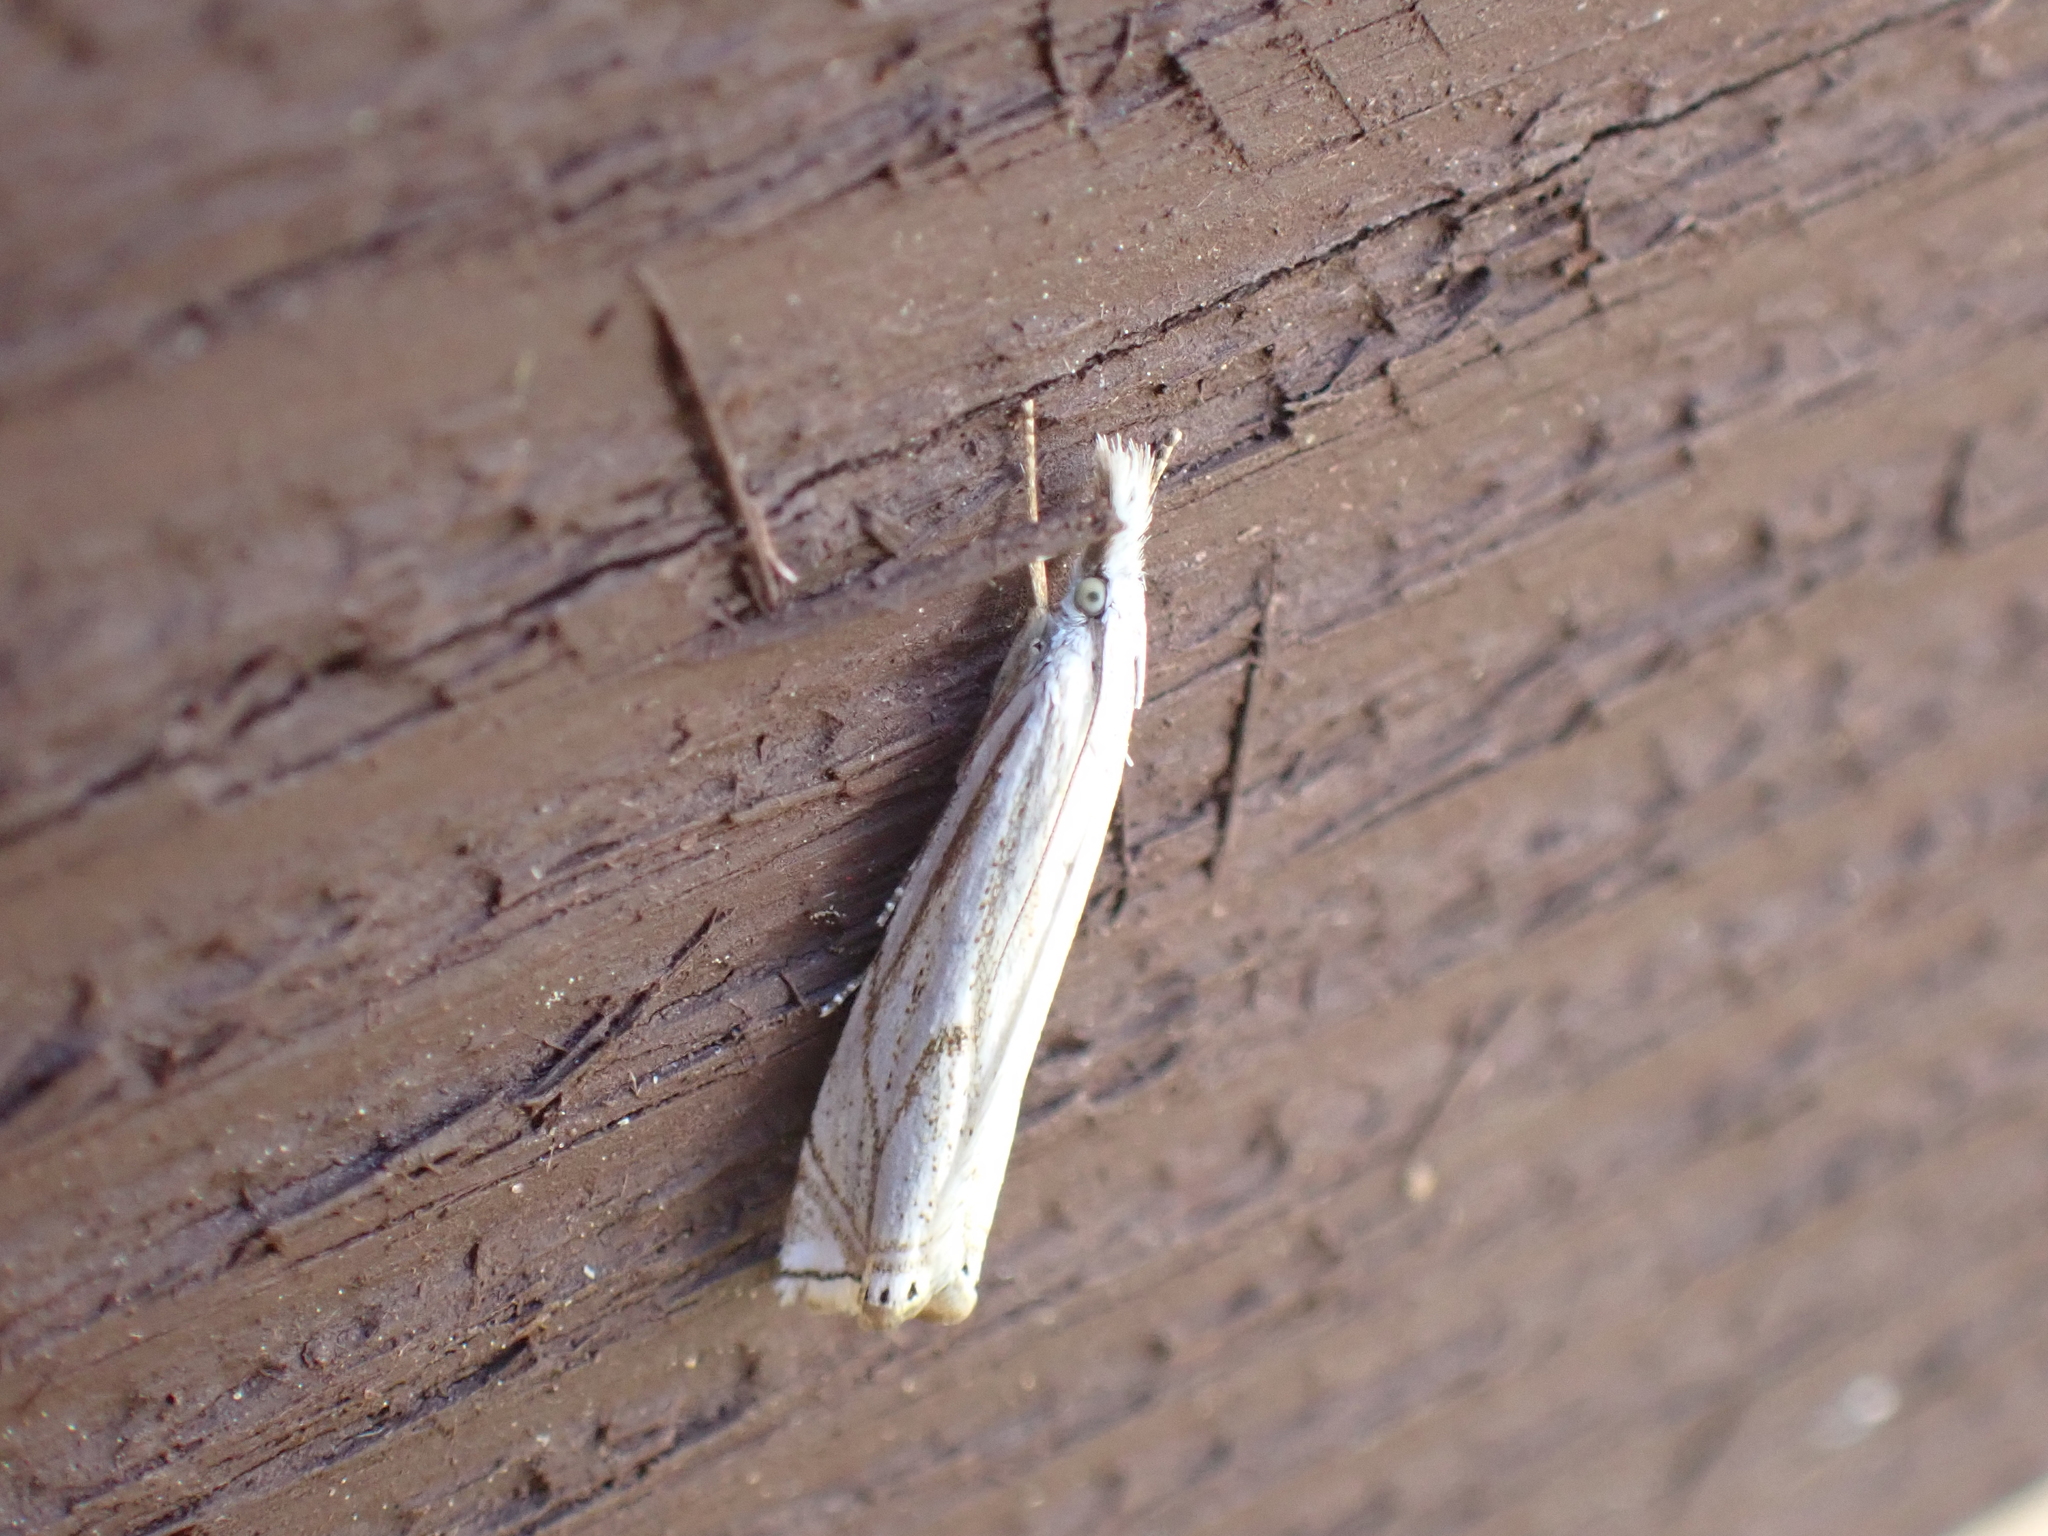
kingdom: Animalia
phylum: Arthropoda
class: Insecta
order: Lepidoptera
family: Crambidae
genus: Crambus
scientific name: Crambus nemorella
